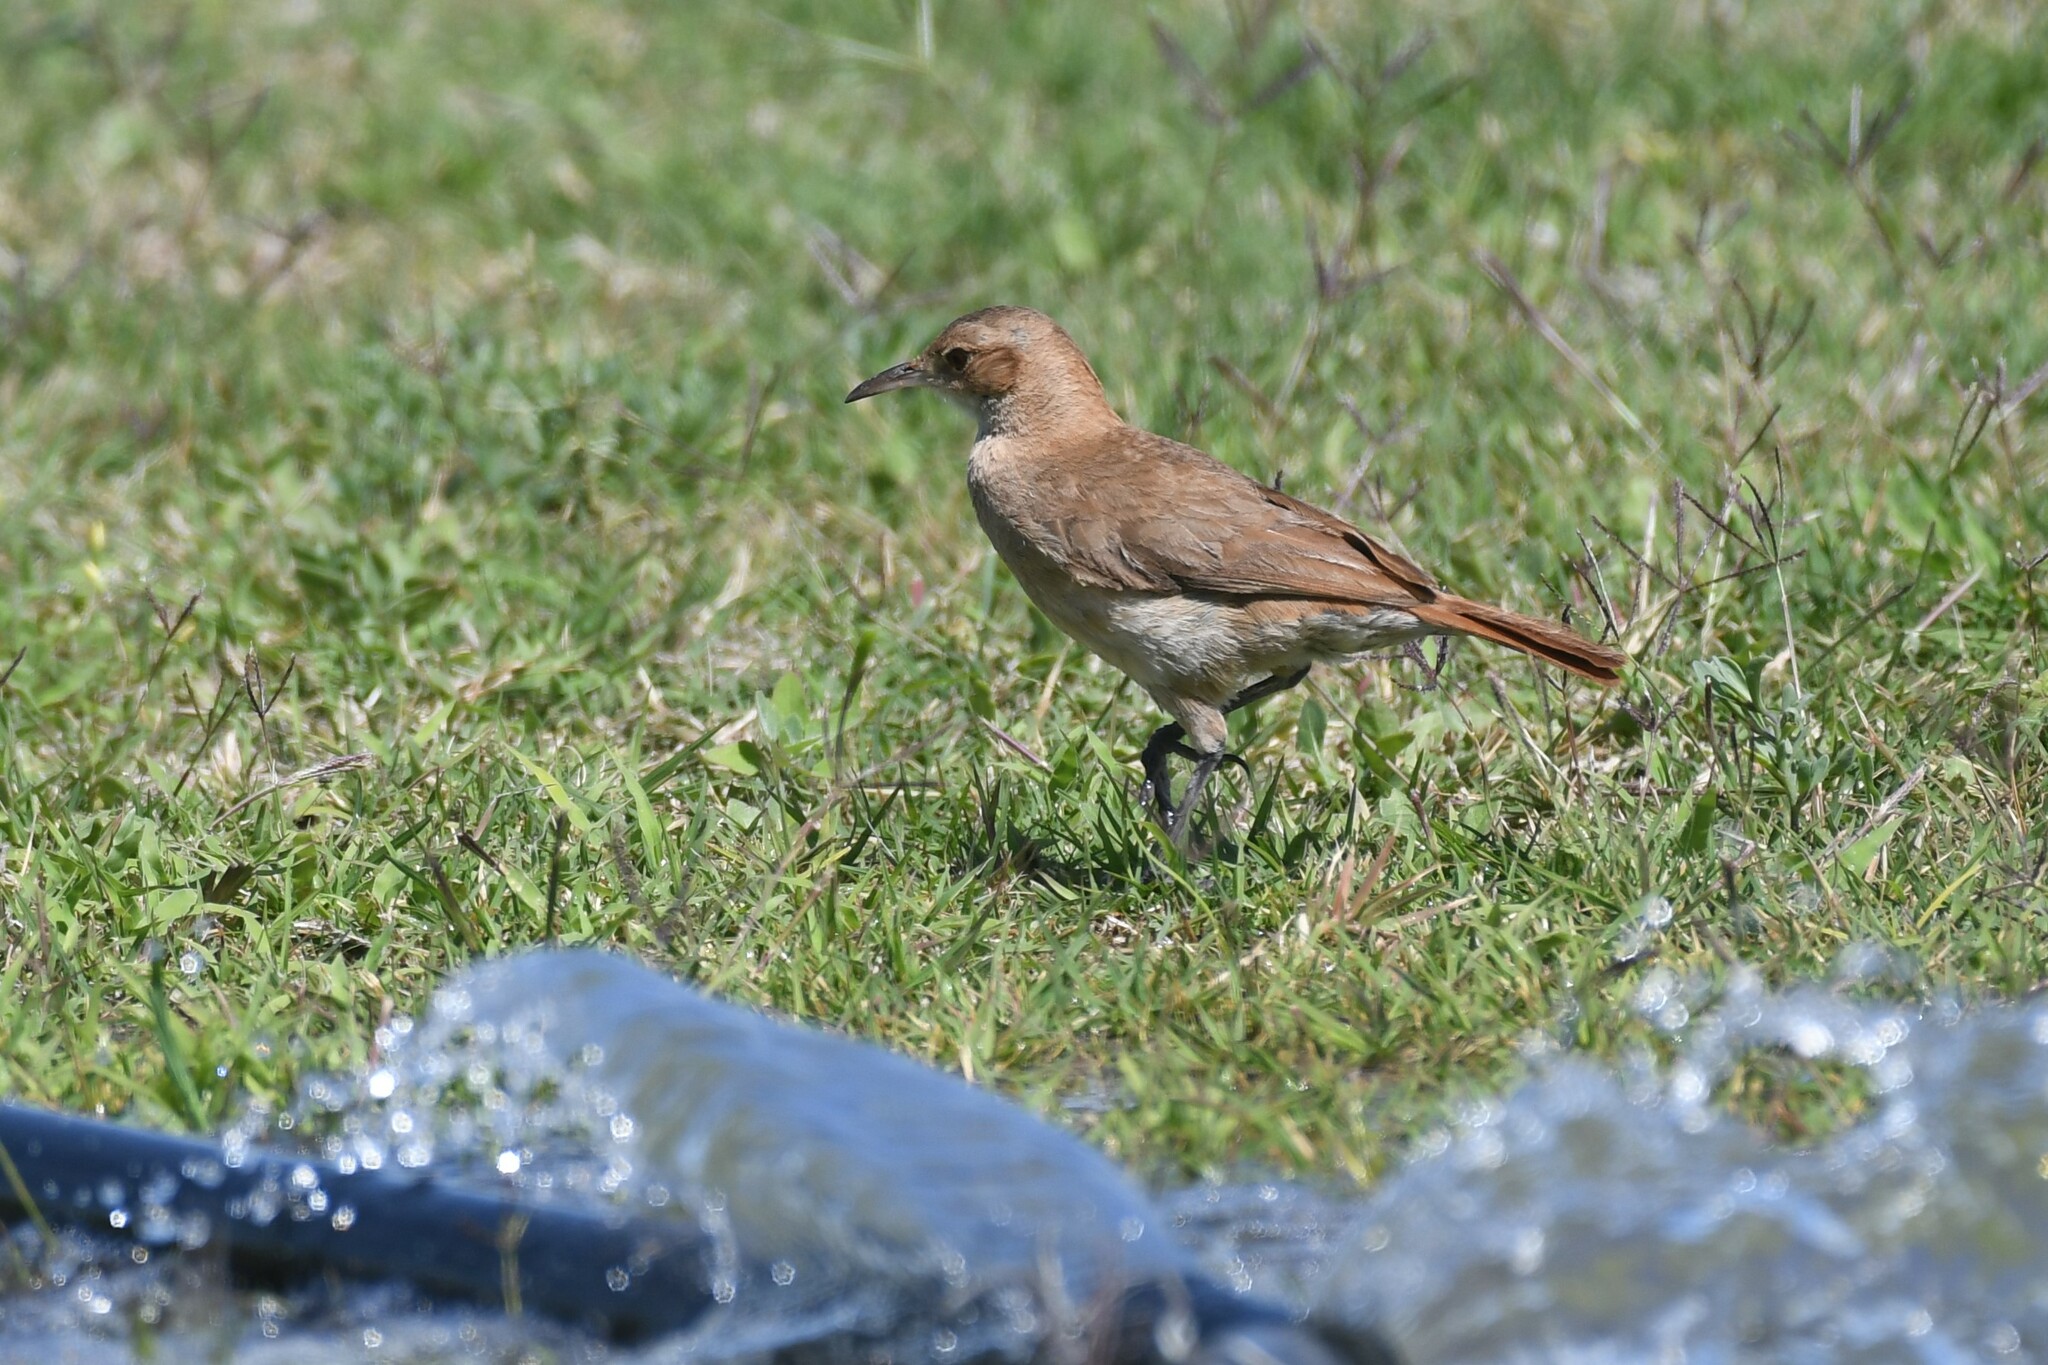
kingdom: Animalia
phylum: Chordata
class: Aves
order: Passeriformes
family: Furnariidae
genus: Furnarius
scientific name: Furnarius rufus
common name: Rufous hornero
